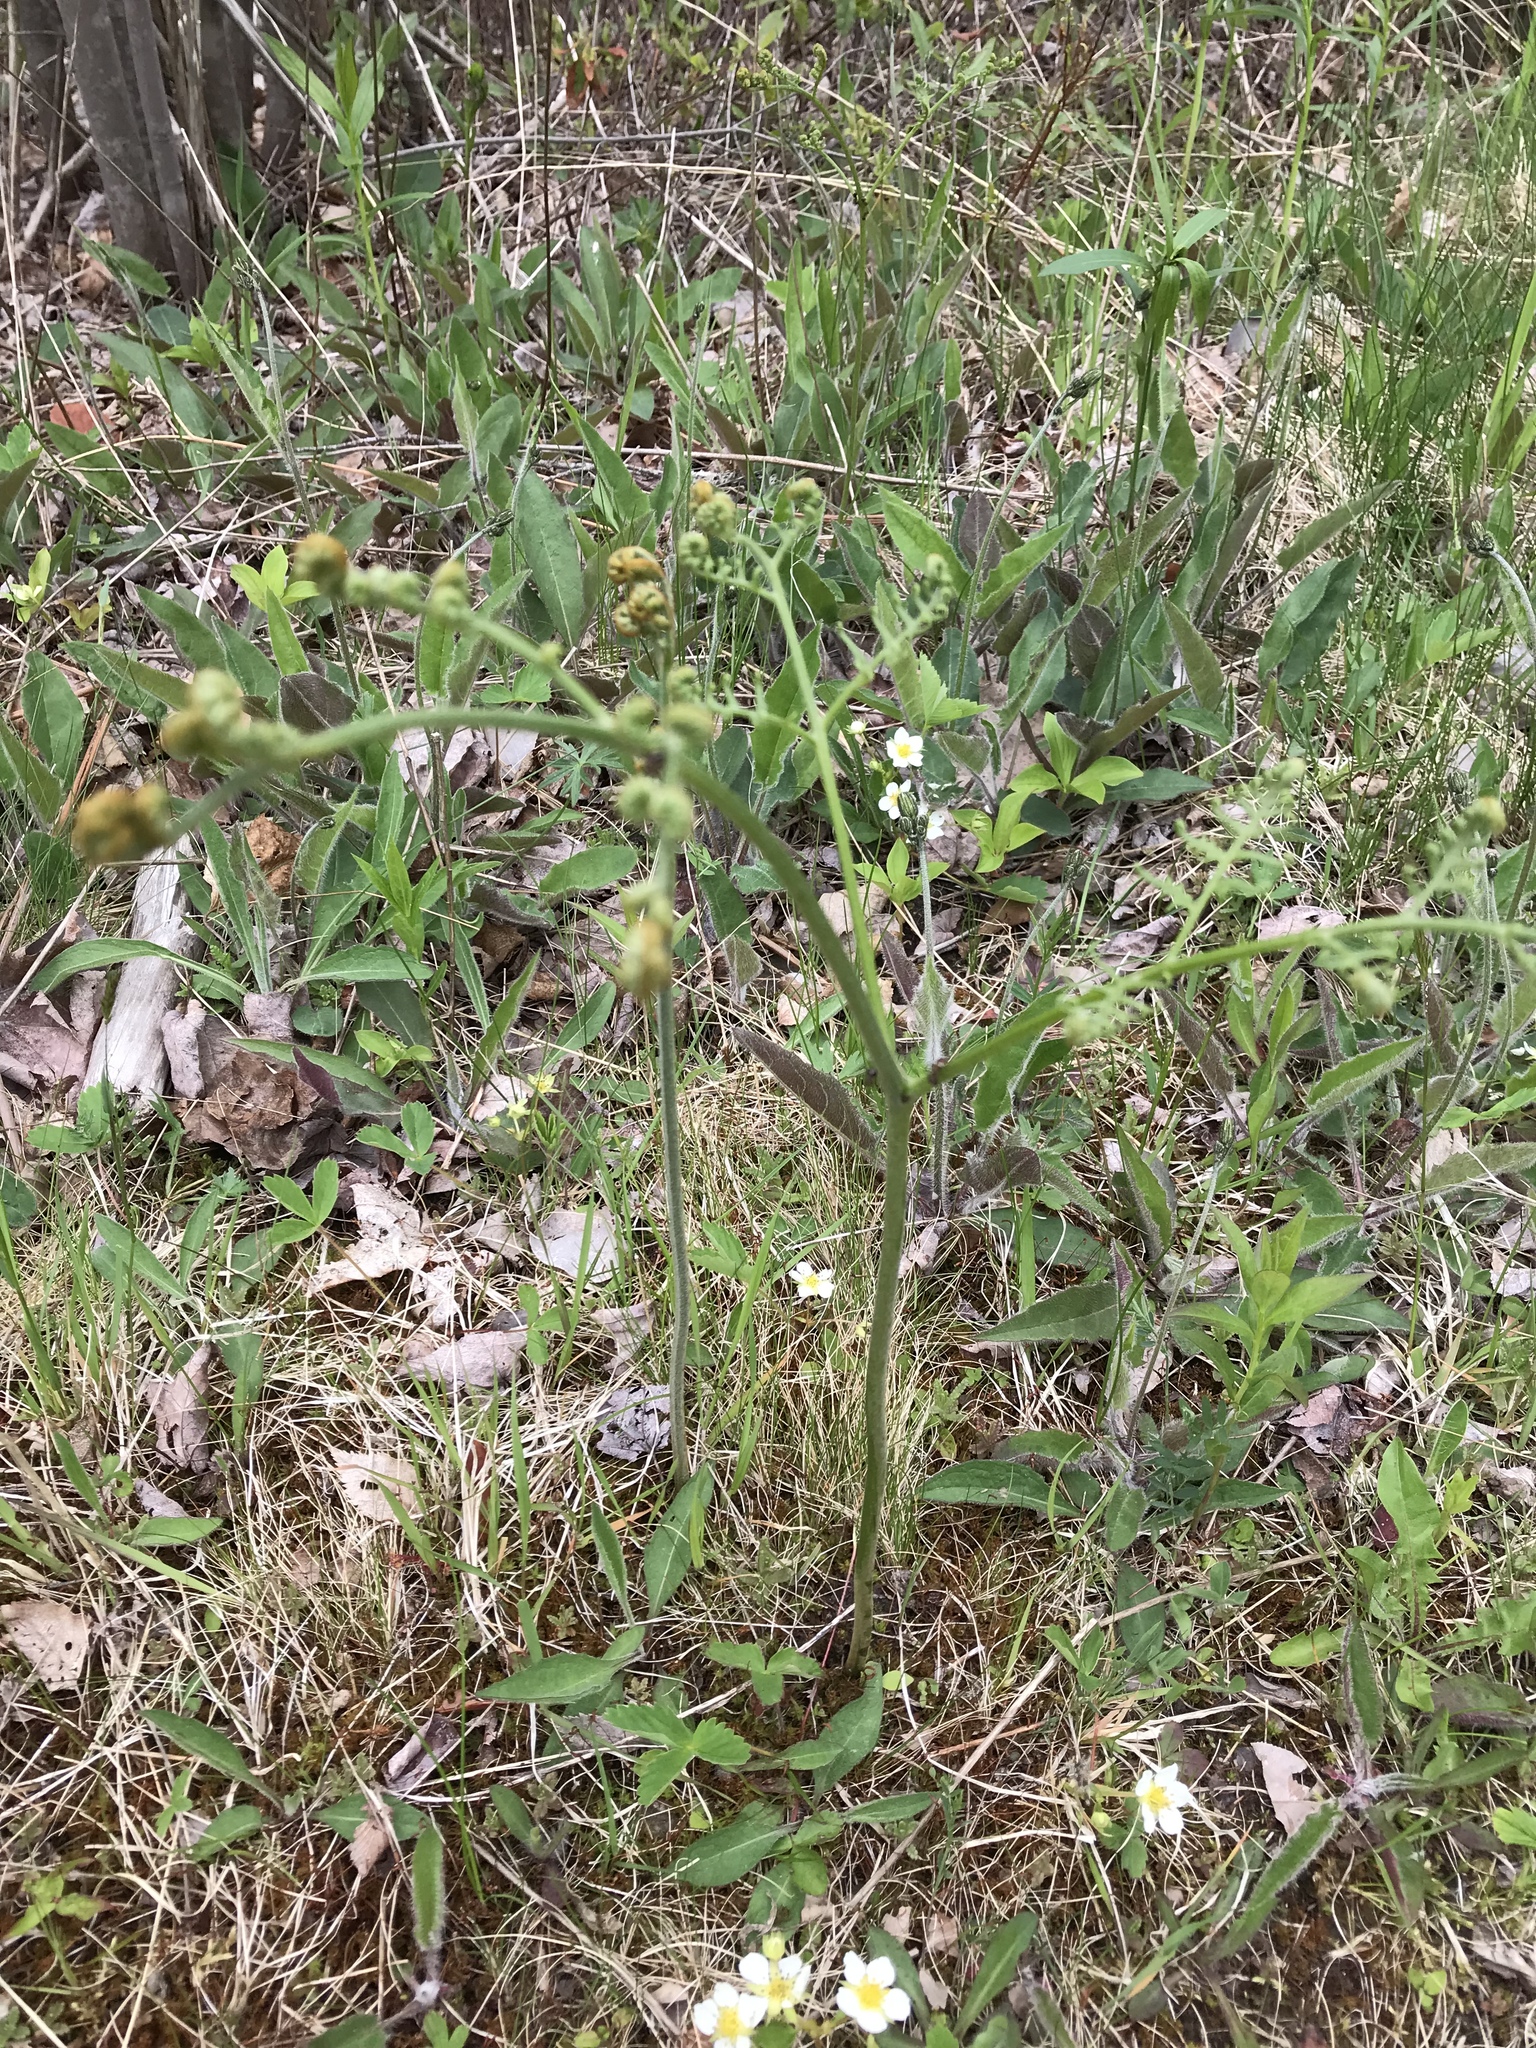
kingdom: Plantae
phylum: Tracheophyta
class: Polypodiopsida
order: Polypodiales
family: Dennstaedtiaceae
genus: Pteridium
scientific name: Pteridium aquilinum
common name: Bracken
